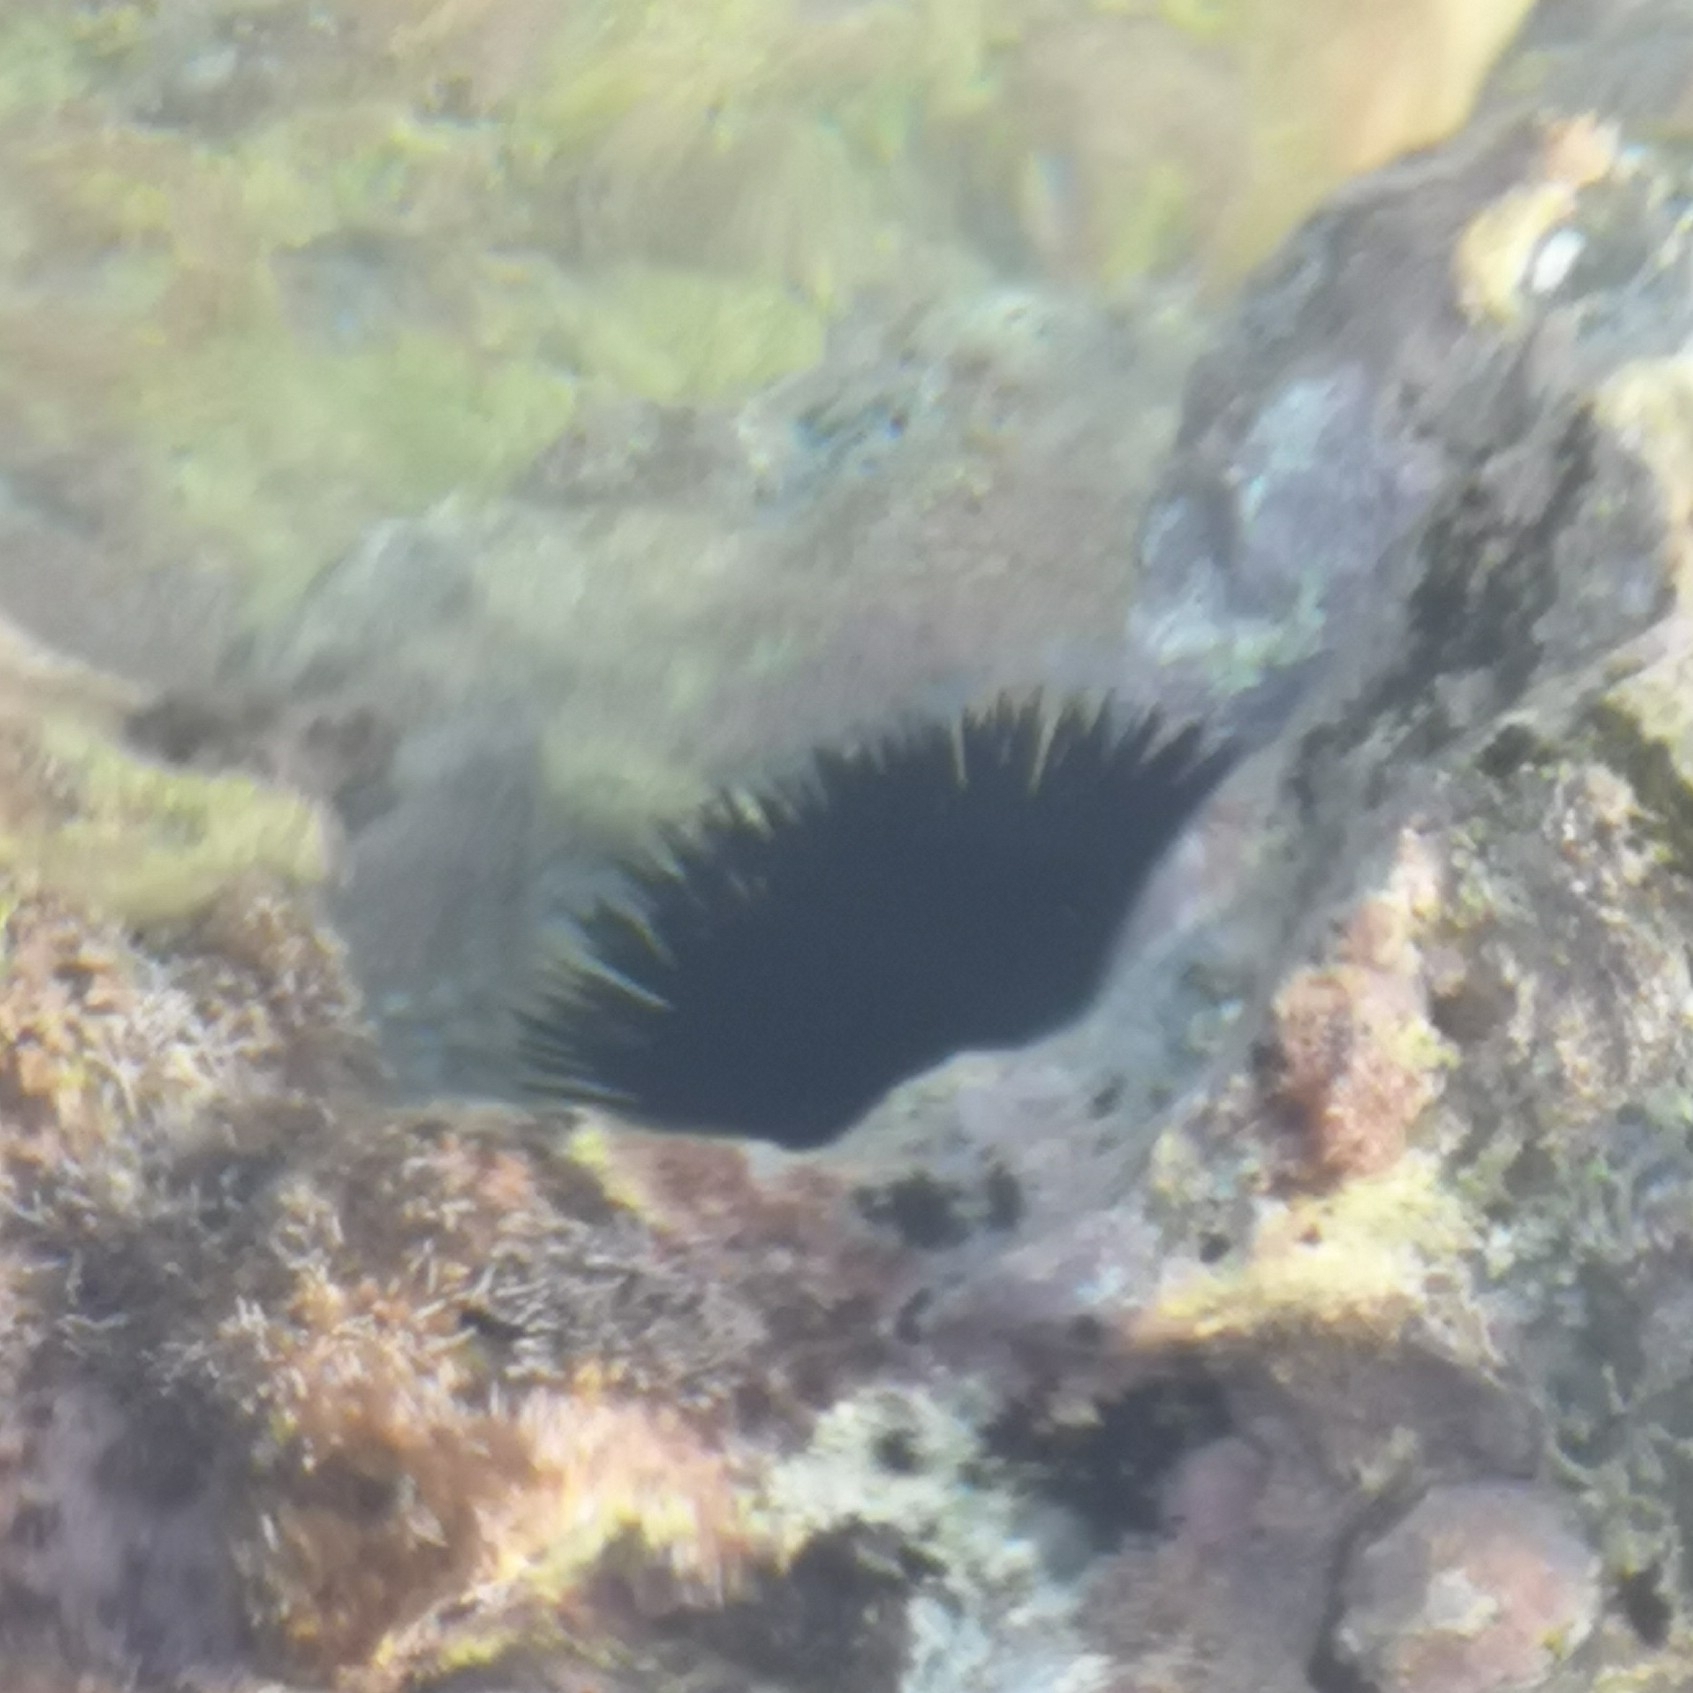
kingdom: Animalia
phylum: Echinodermata
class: Echinoidea
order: Arbacioida
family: Arbaciidae
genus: Arbacia
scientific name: Arbacia lixula
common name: Black sea urchin
